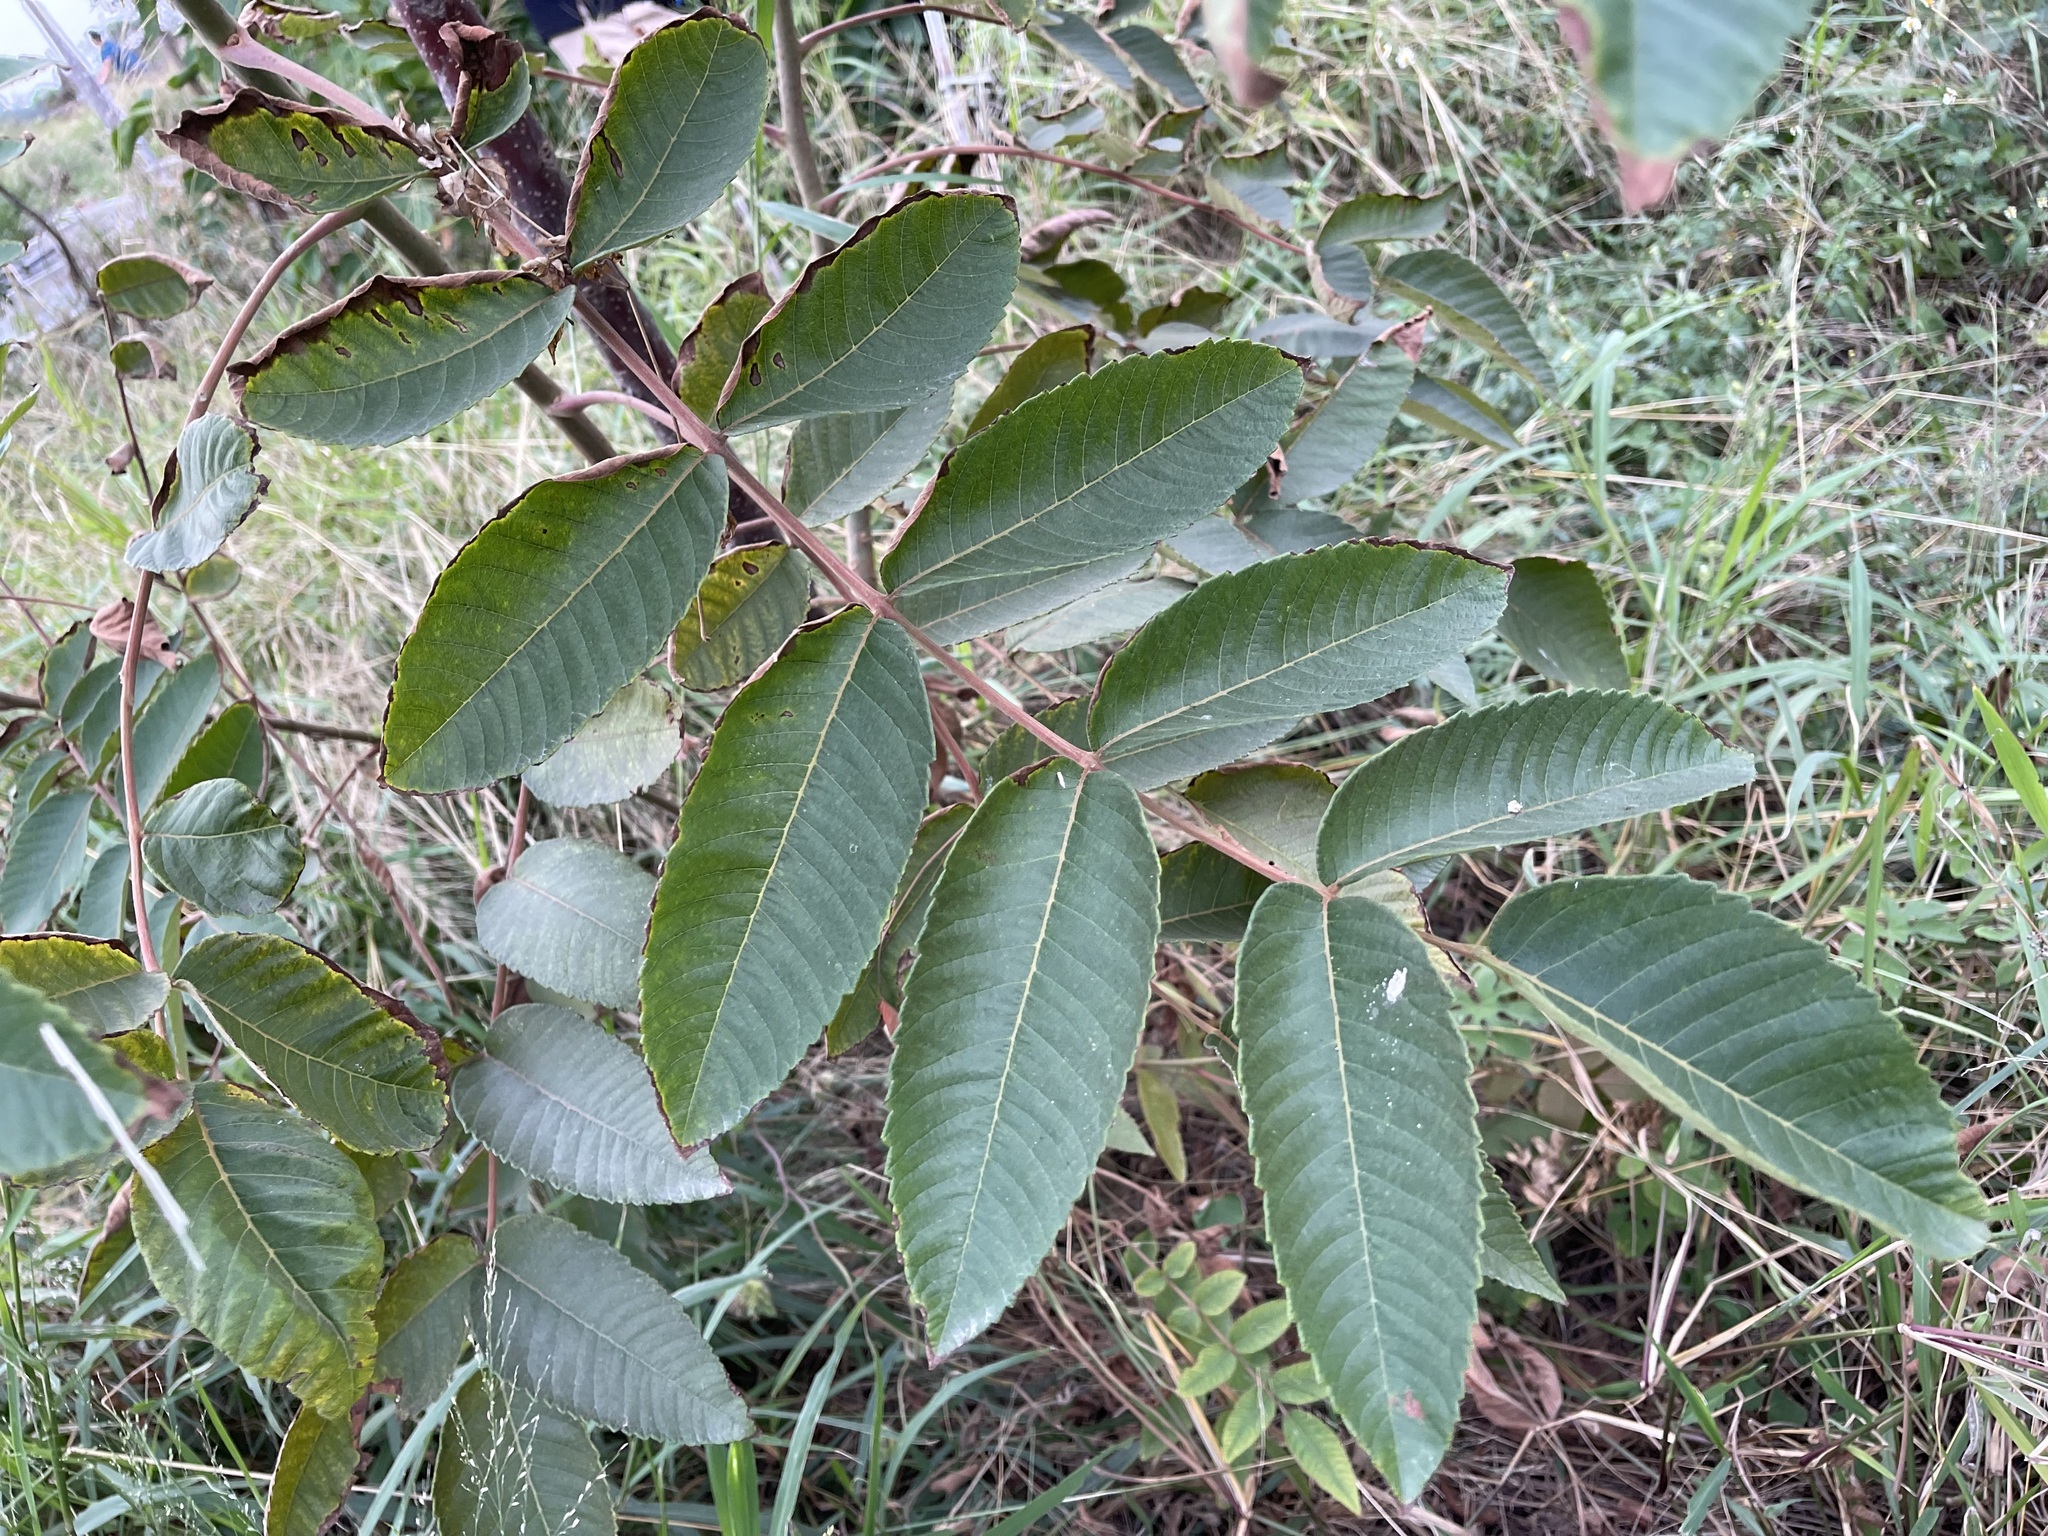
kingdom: Plantae
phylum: Tracheophyta
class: Magnoliopsida
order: Sapindales
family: Anacardiaceae
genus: Rhus
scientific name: Rhus chinensis
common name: Chinese gall
